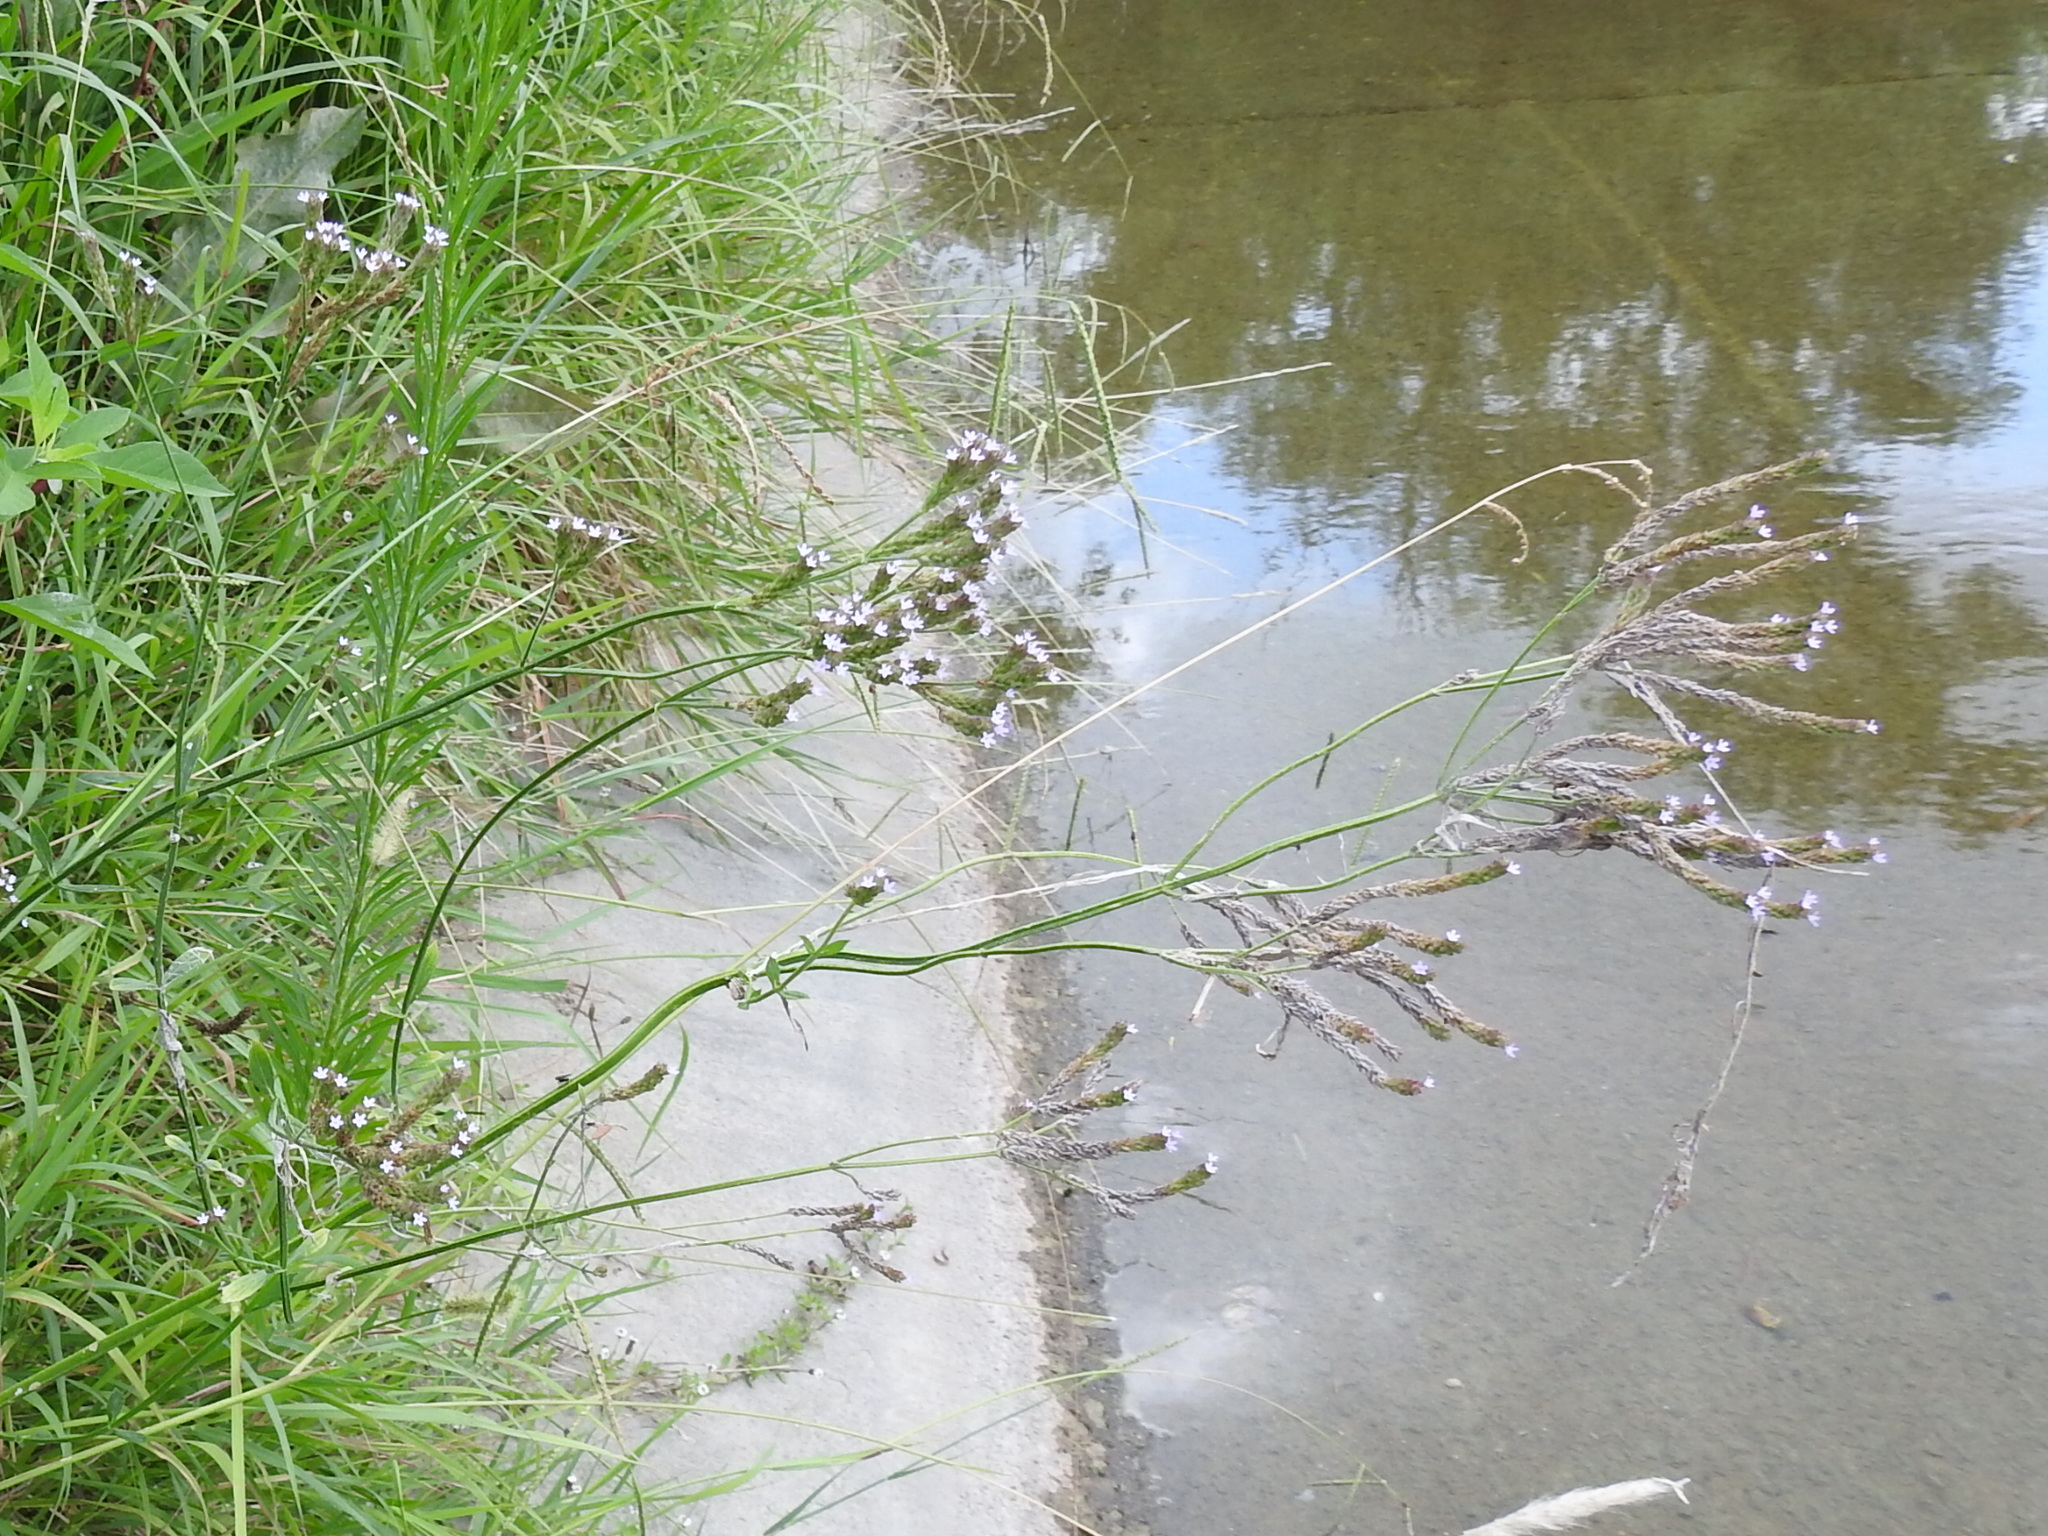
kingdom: Plantae
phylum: Tracheophyta
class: Magnoliopsida
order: Lamiales
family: Verbenaceae
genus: Verbena
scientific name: Verbena brasiliensis
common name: Brazilian vervain
